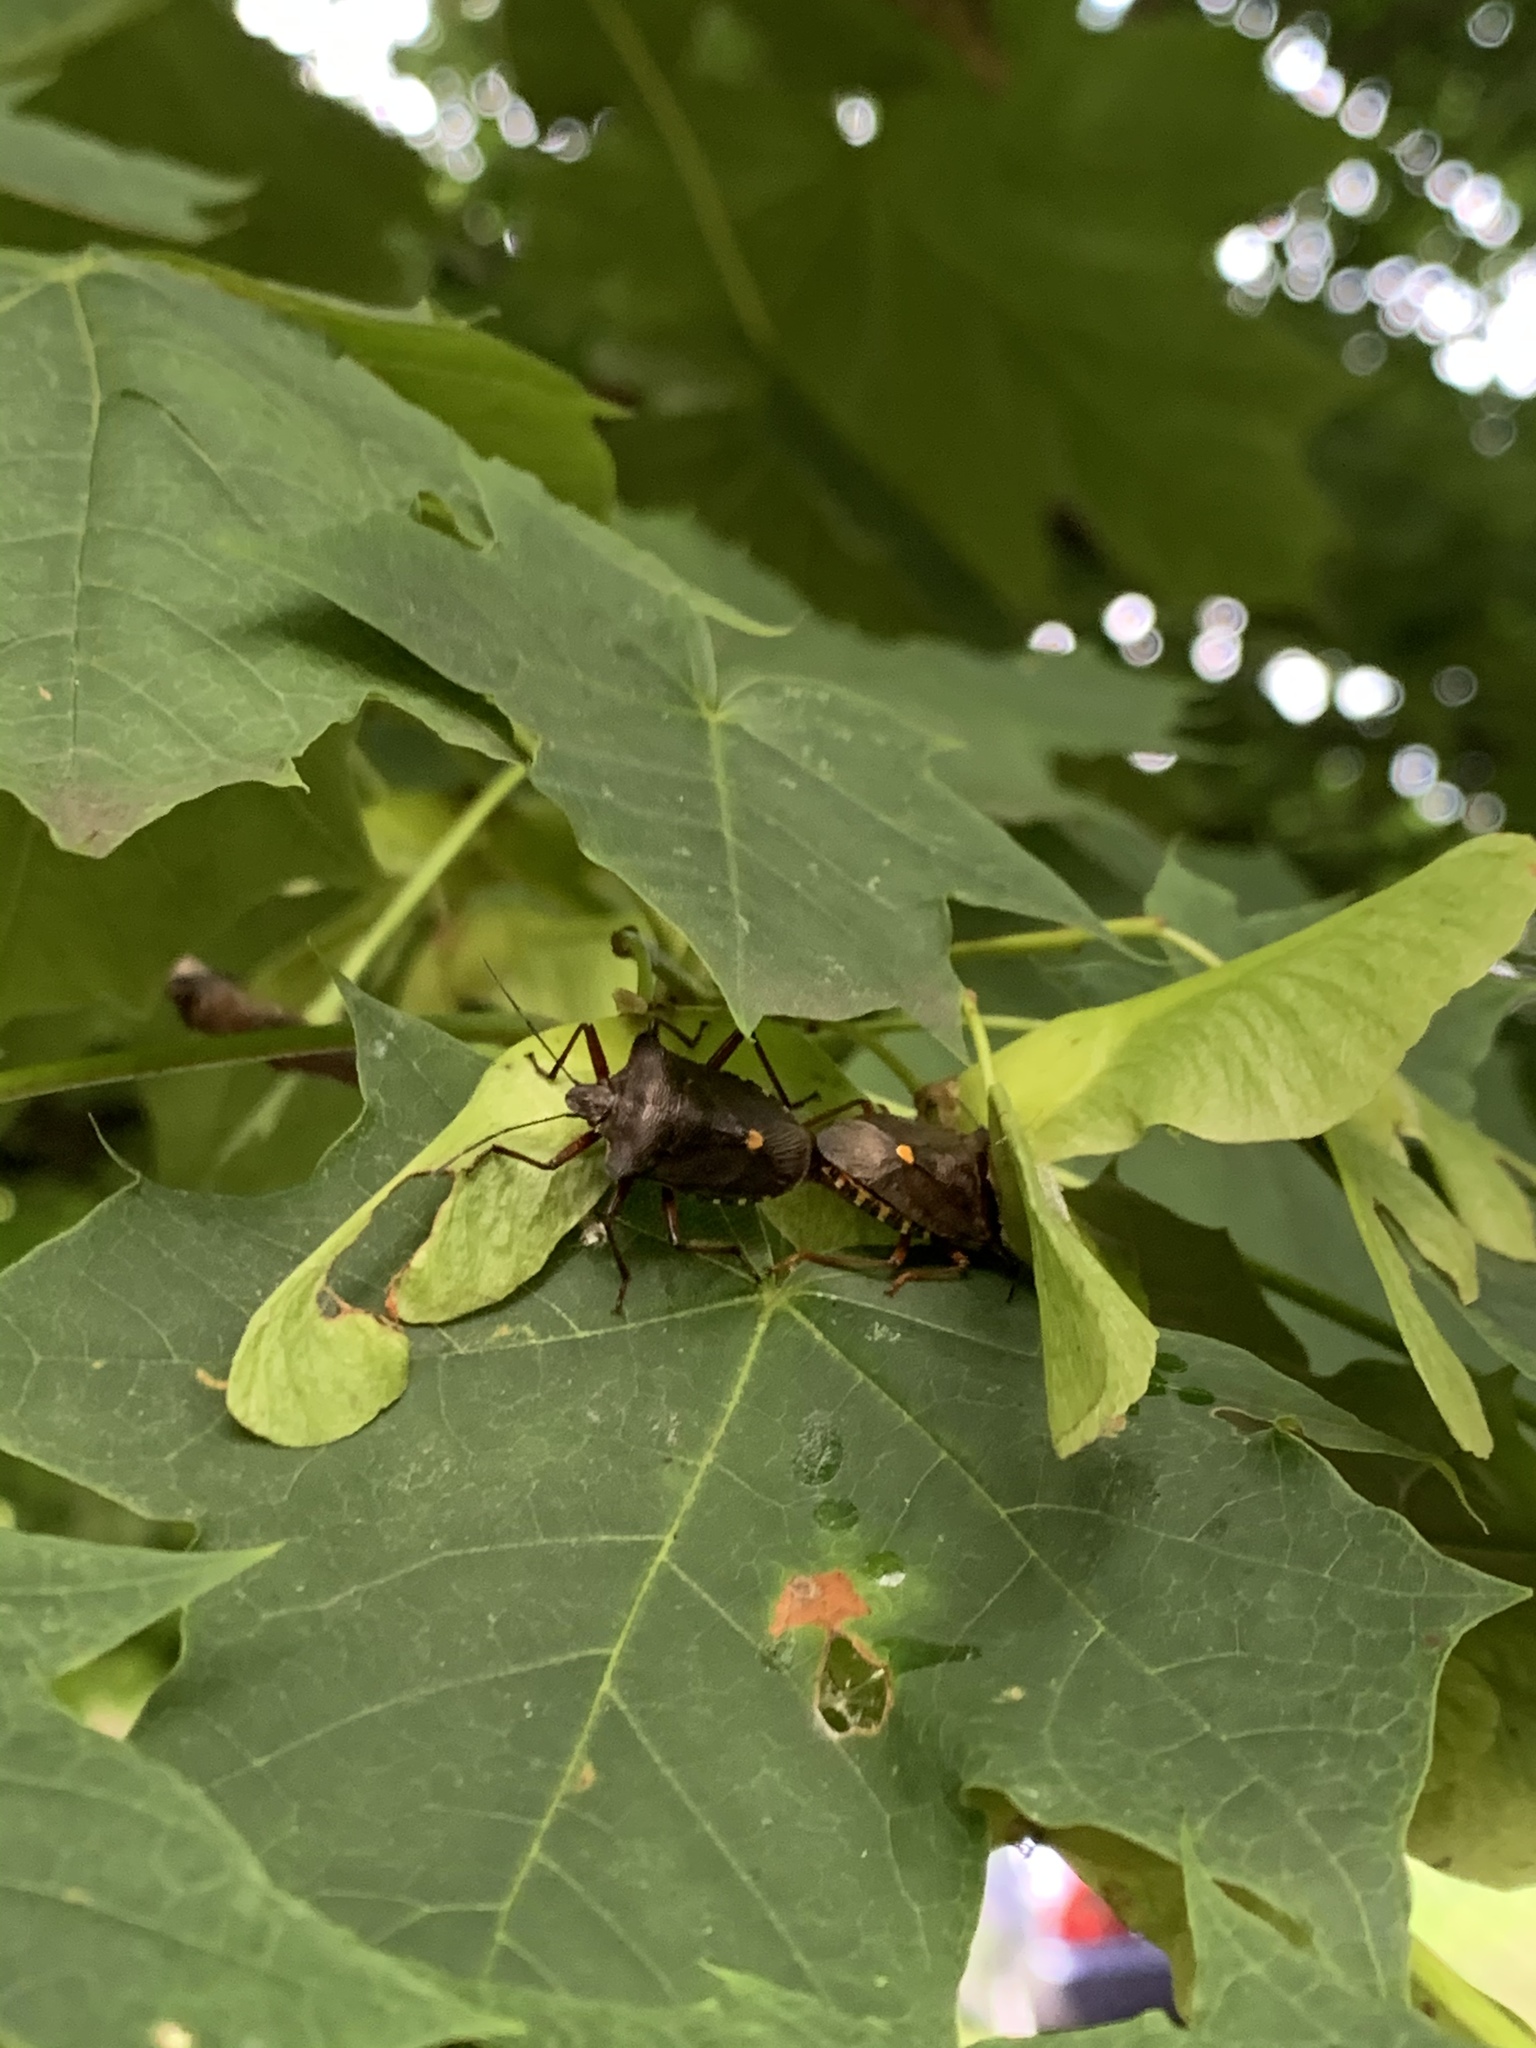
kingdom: Animalia
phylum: Arthropoda
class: Insecta
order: Hemiptera
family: Pentatomidae
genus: Pentatoma
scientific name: Pentatoma rufipes
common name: Forest bug
